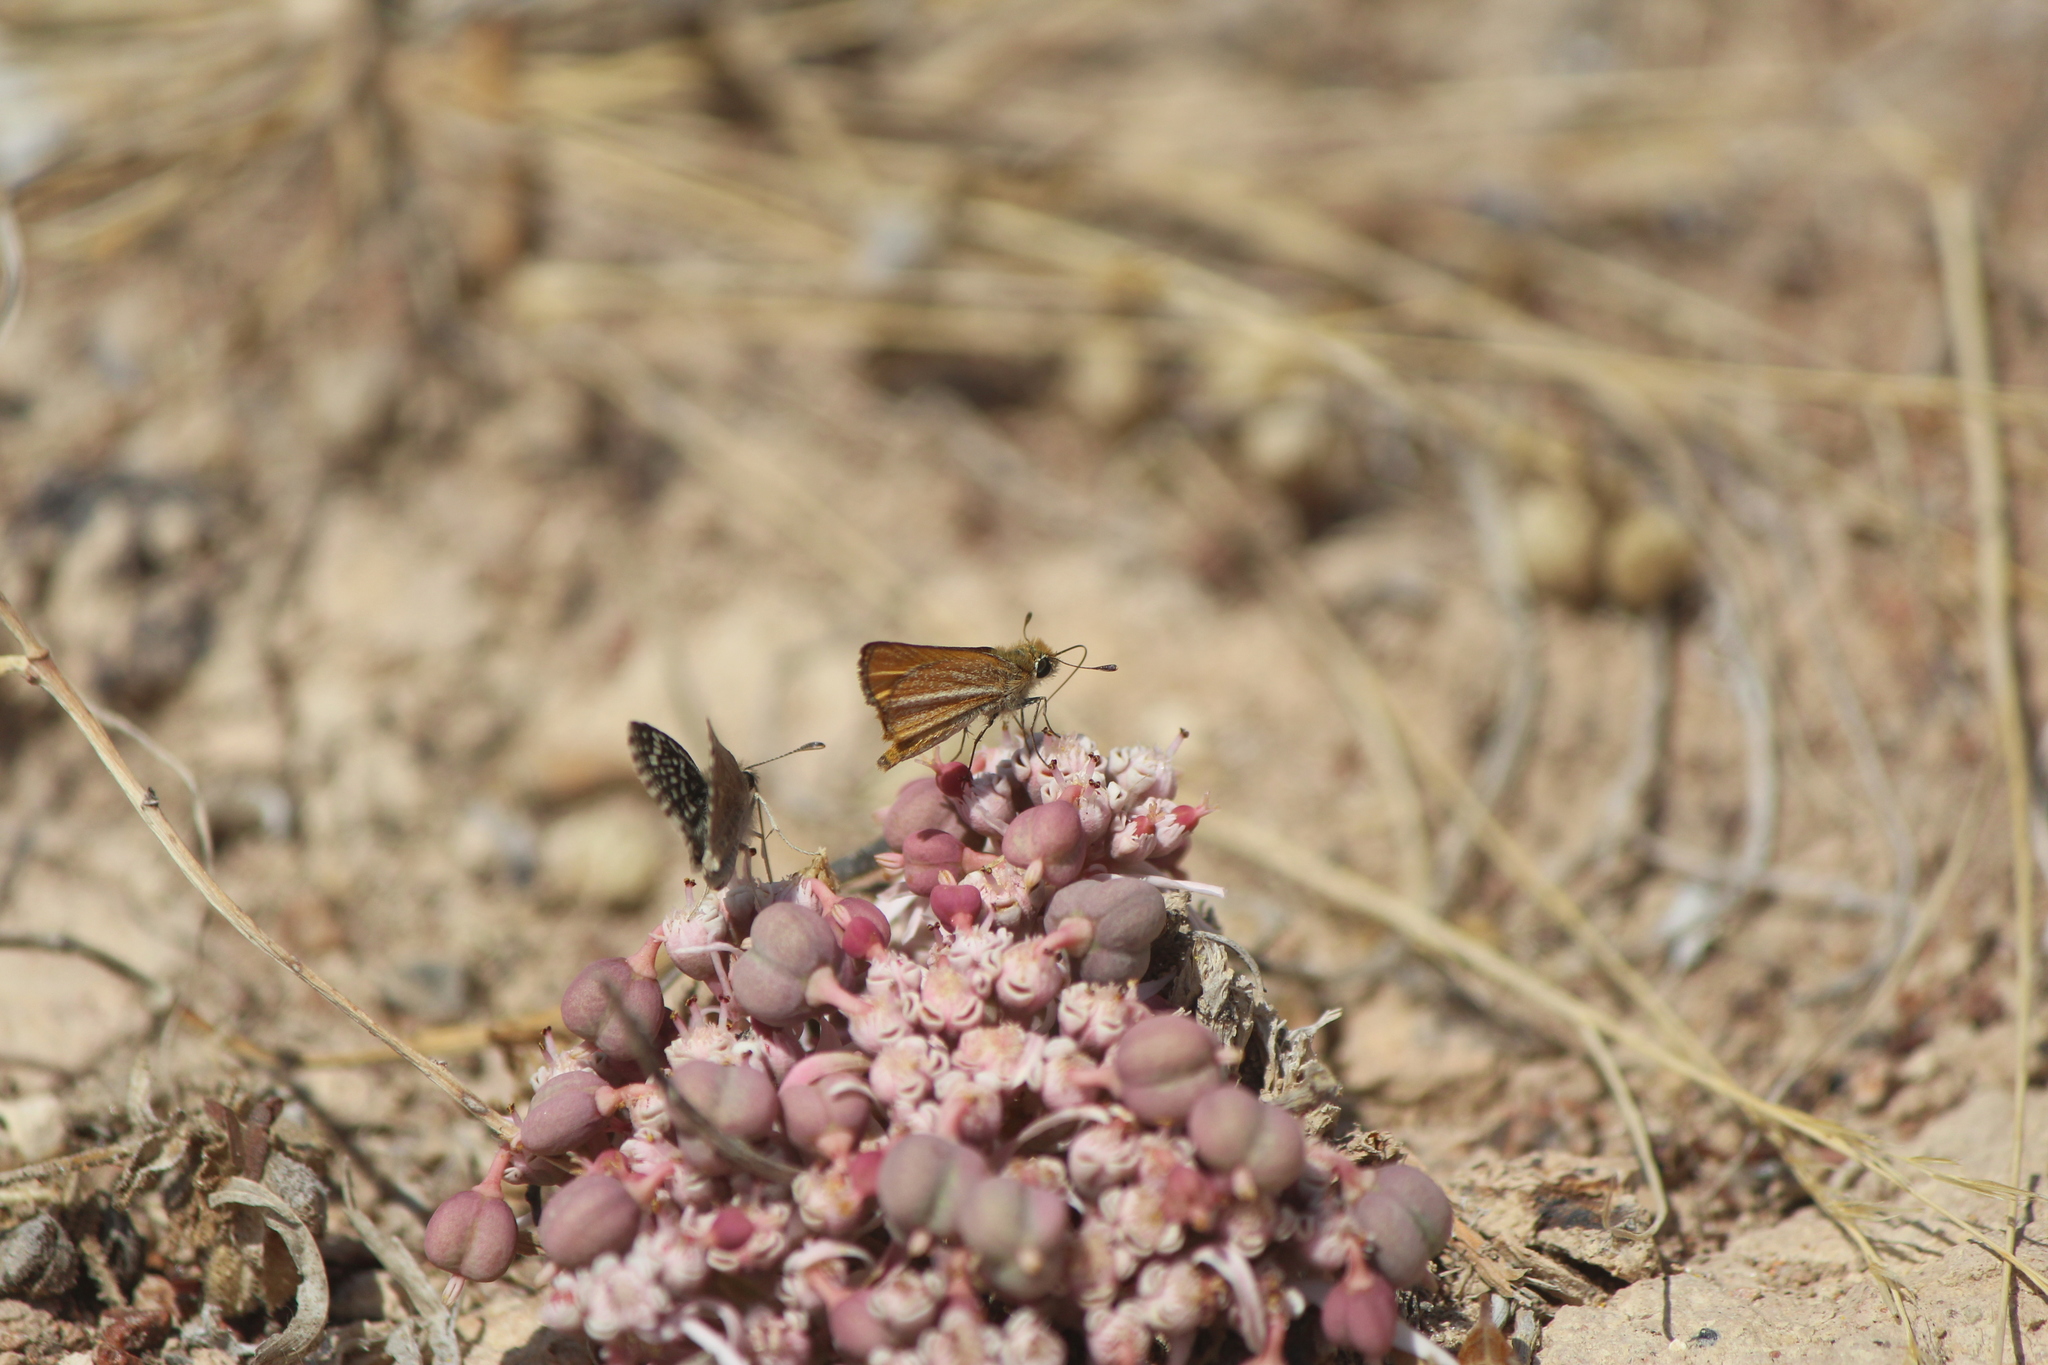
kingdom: Animalia
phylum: Arthropoda
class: Insecta
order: Lepidoptera
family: Hesperiidae
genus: Copaeodes
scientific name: Copaeodes minima
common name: Southern skipperling
